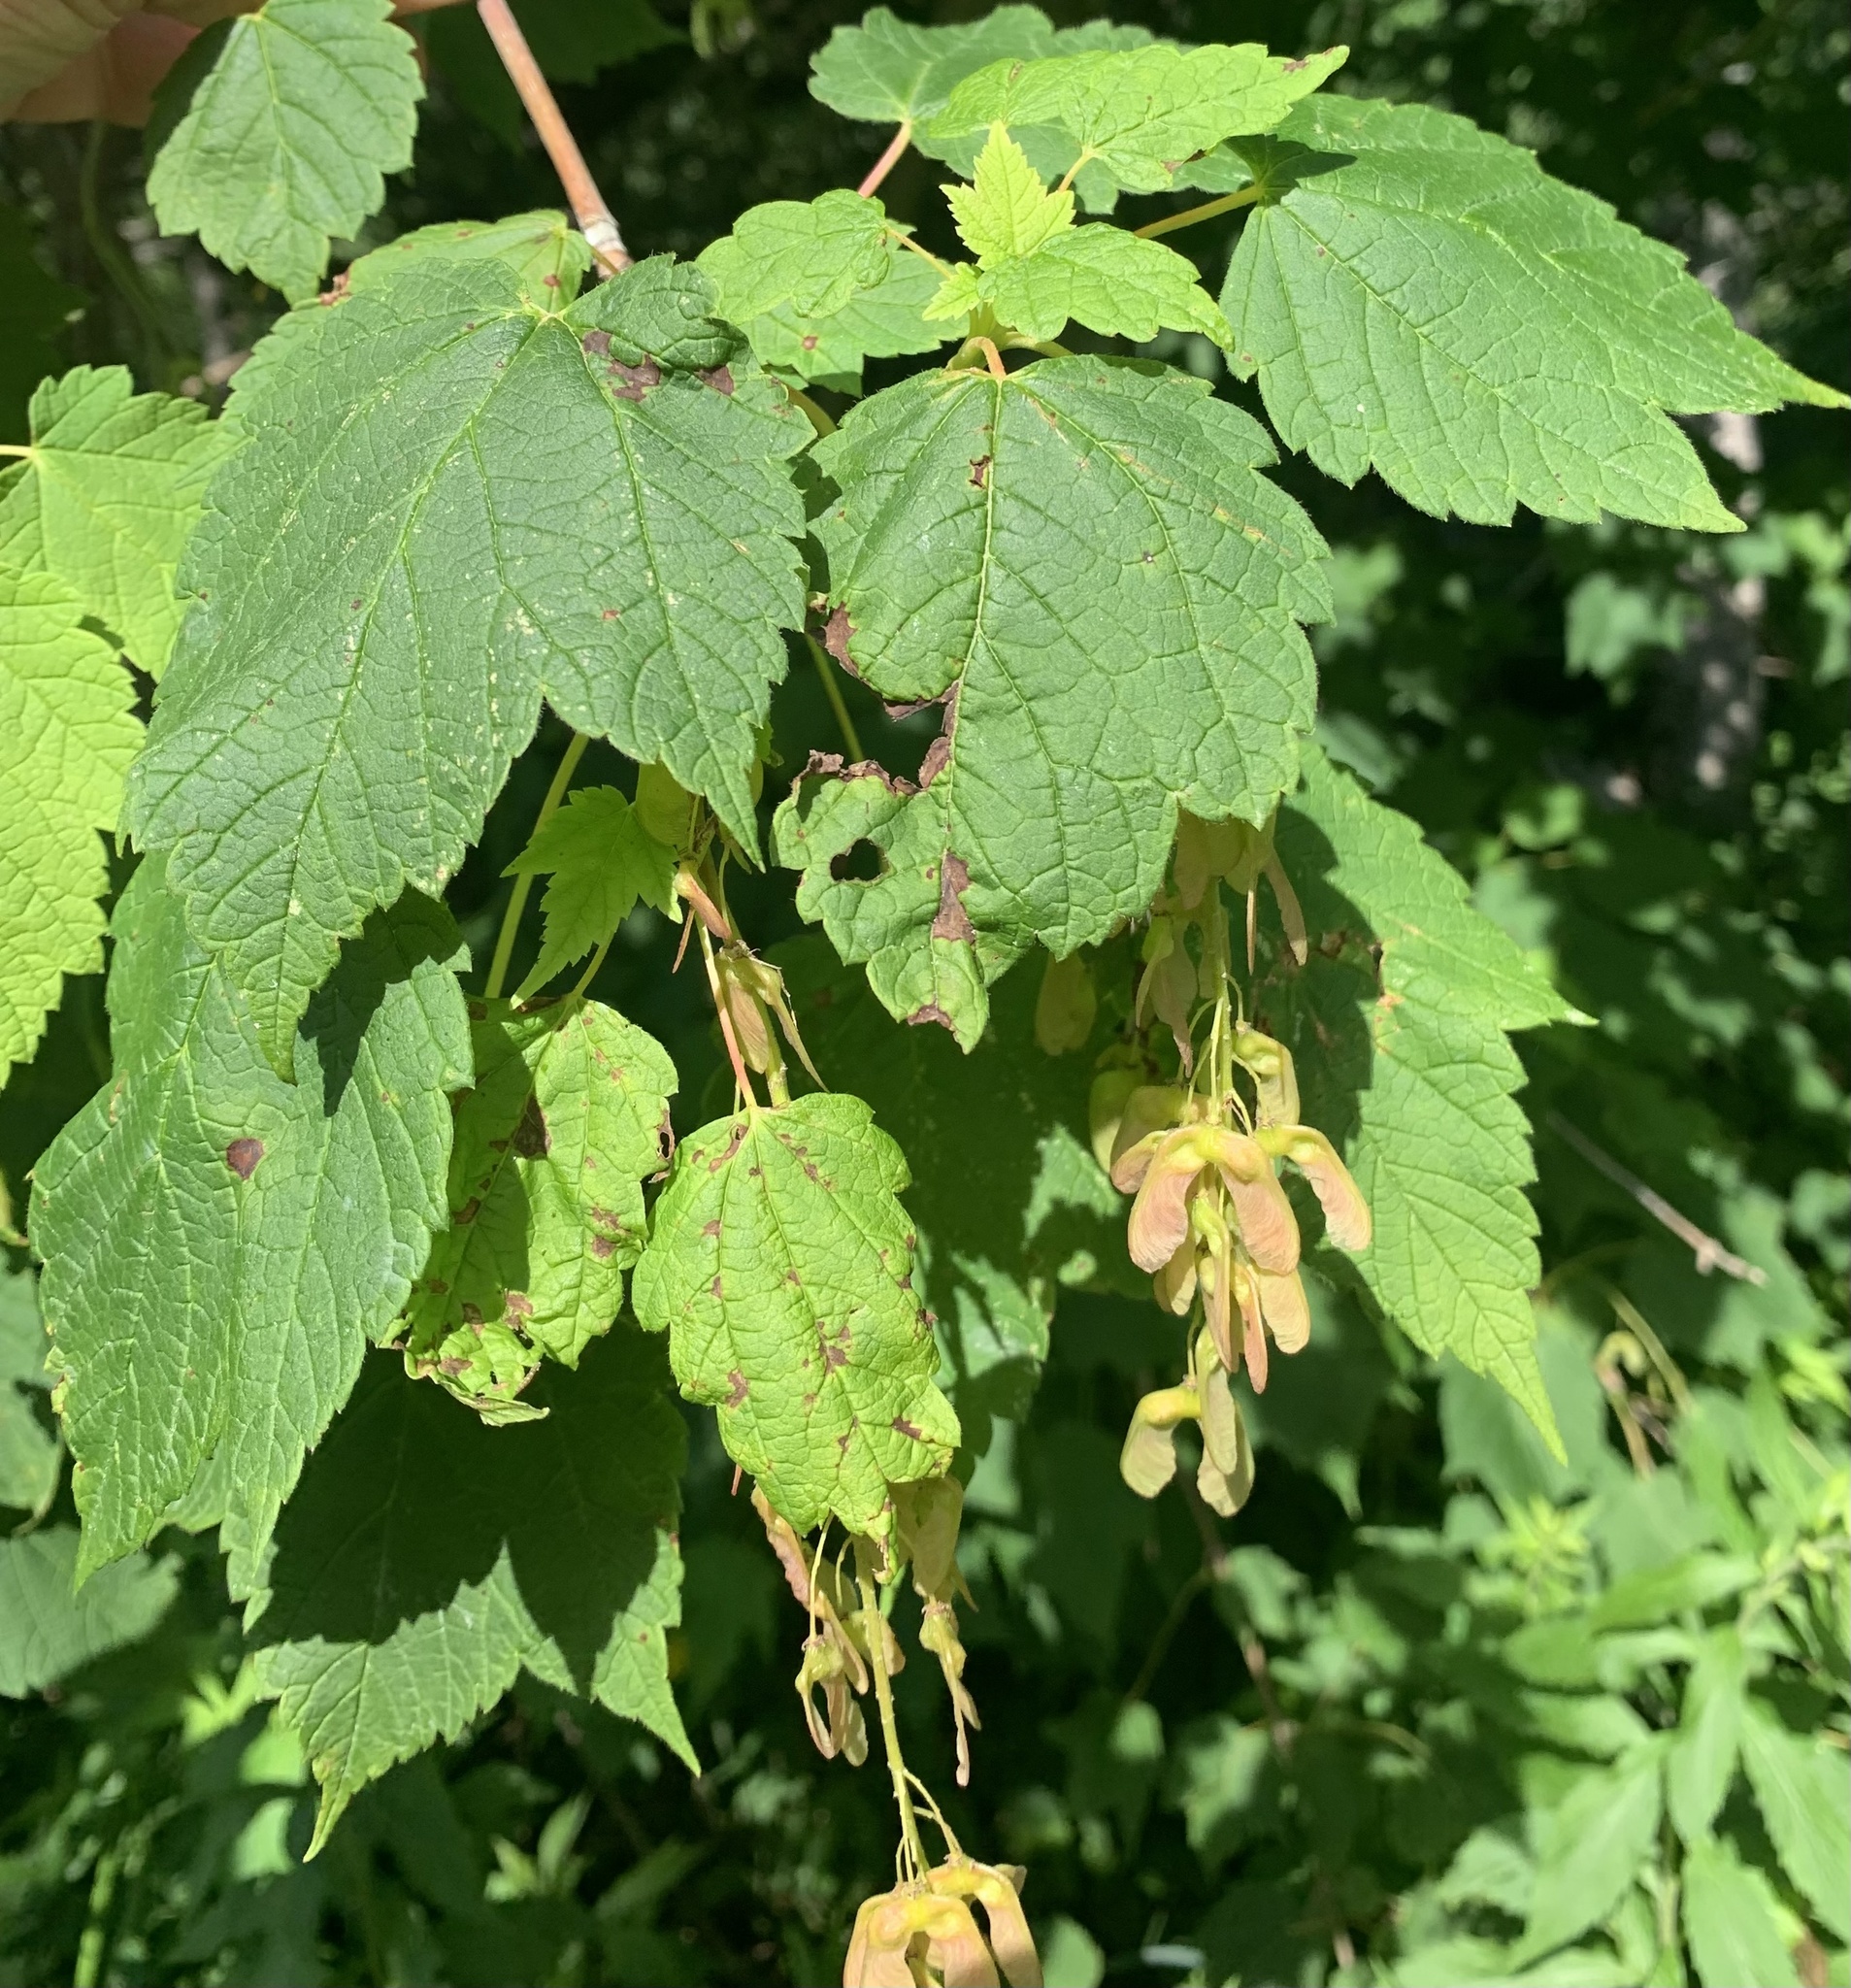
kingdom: Plantae
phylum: Tracheophyta
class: Magnoliopsida
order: Sapindales
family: Sapindaceae
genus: Acer
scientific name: Acer spicatum
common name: Mountain maple
